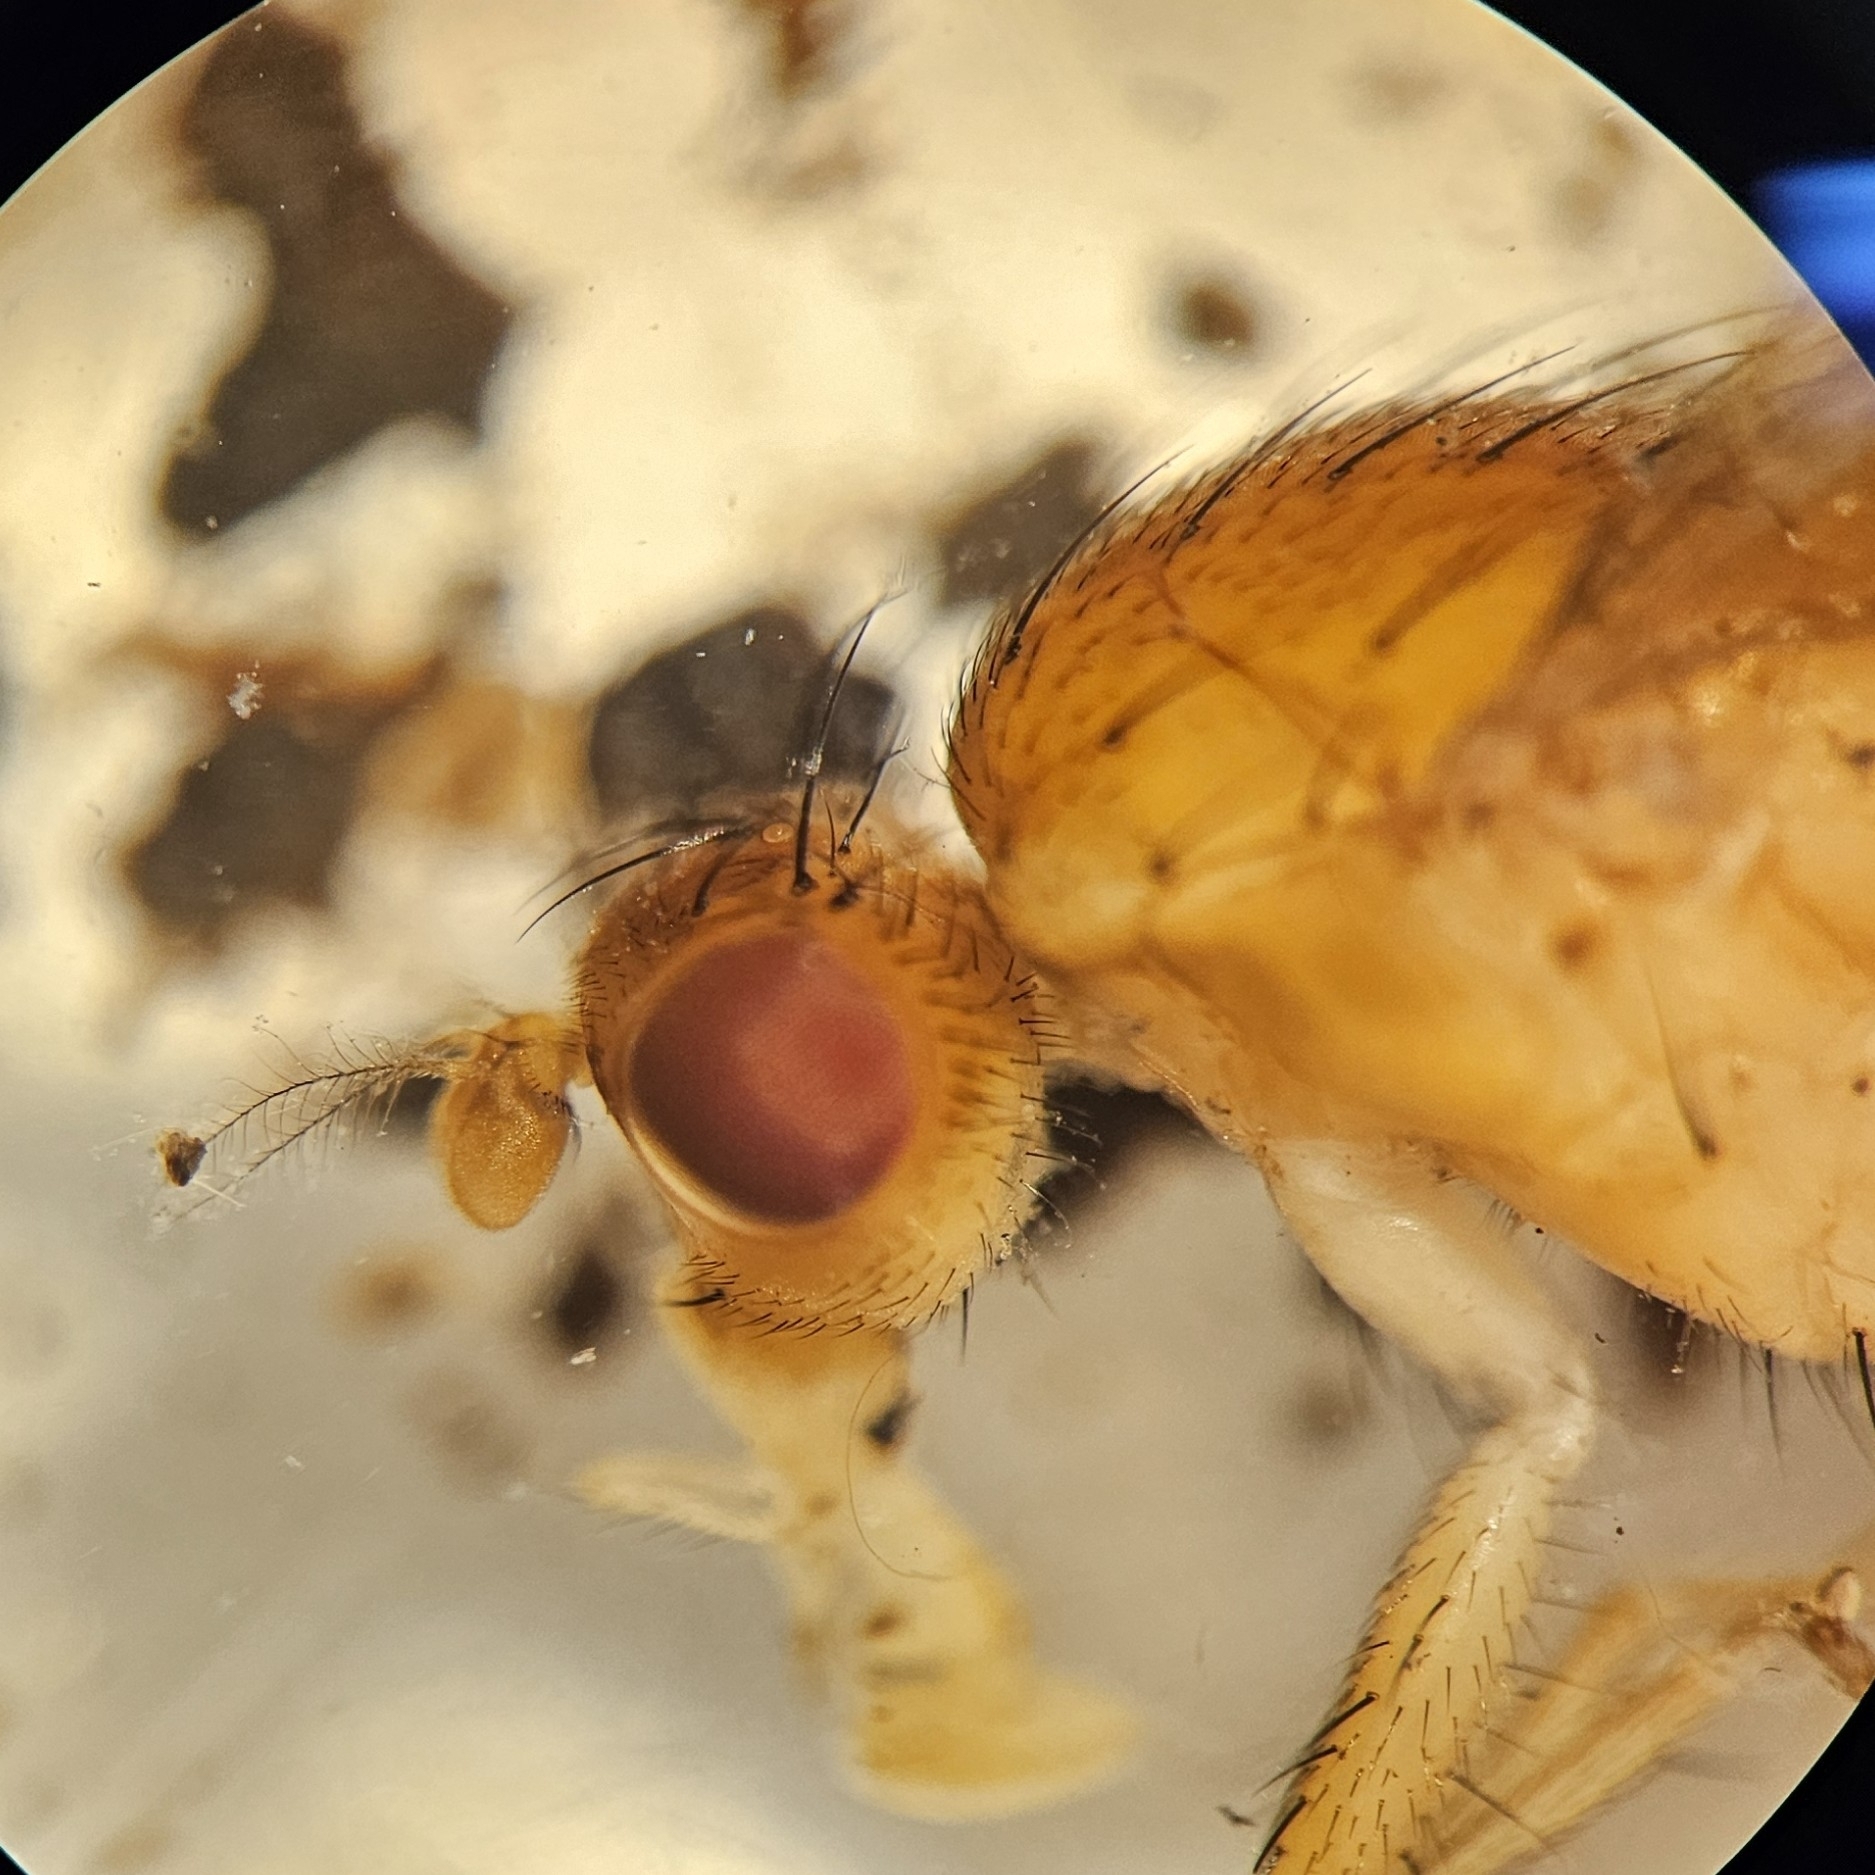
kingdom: Animalia
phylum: Arthropoda
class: Insecta
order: Diptera
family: Heleomyzidae
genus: Suillia
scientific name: Suillia plumata
